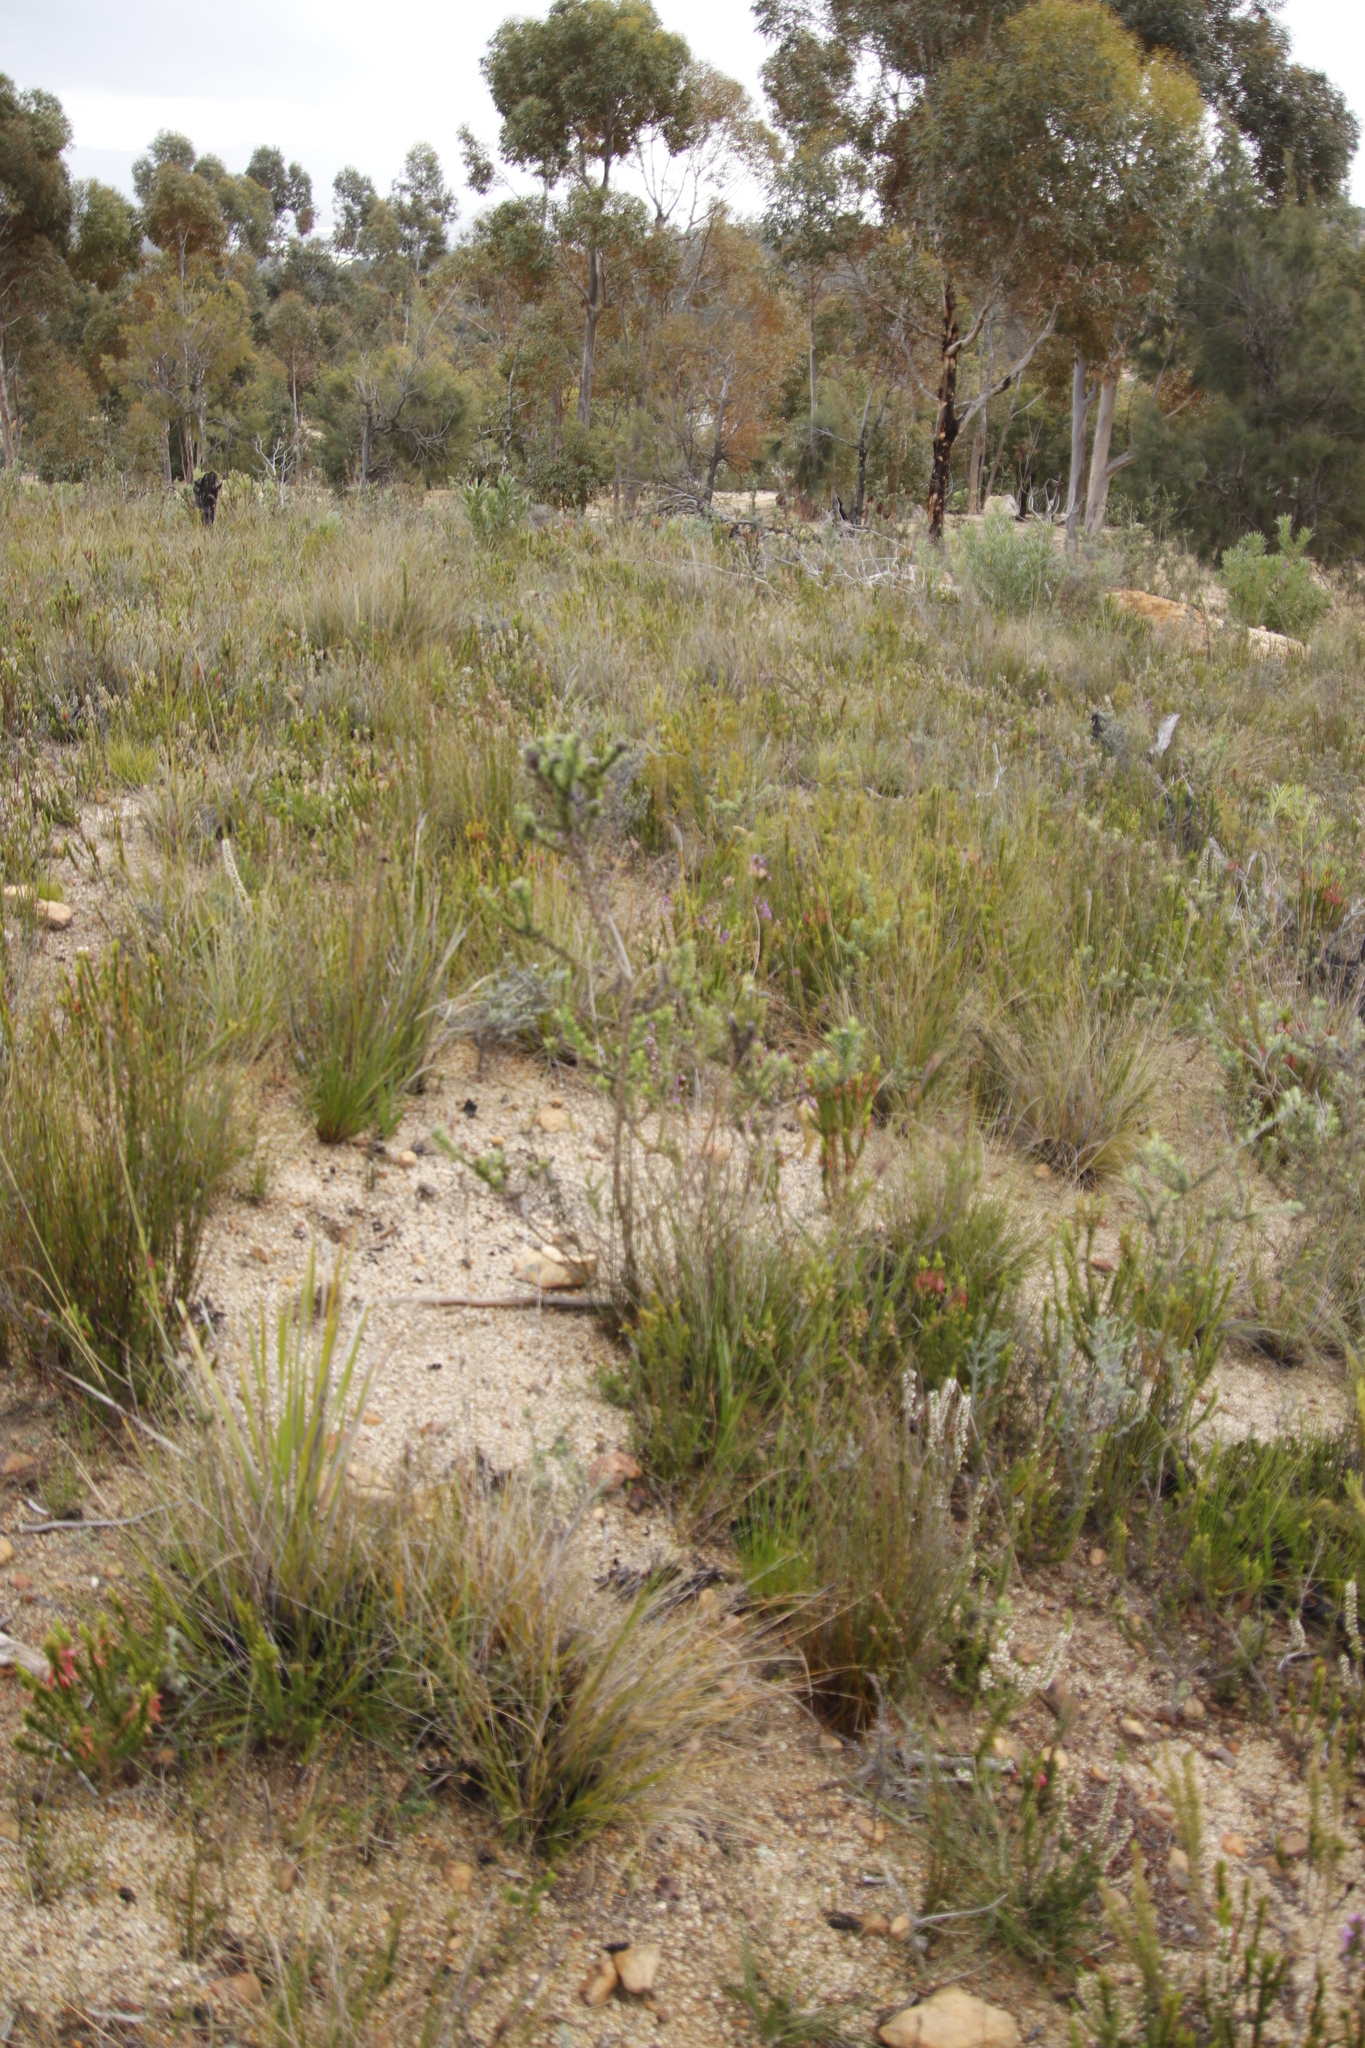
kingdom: Plantae
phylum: Tracheophyta
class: Magnoliopsida
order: Asterales
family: Asteraceae
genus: Metalasia
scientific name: Metalasia muraltiifolia
